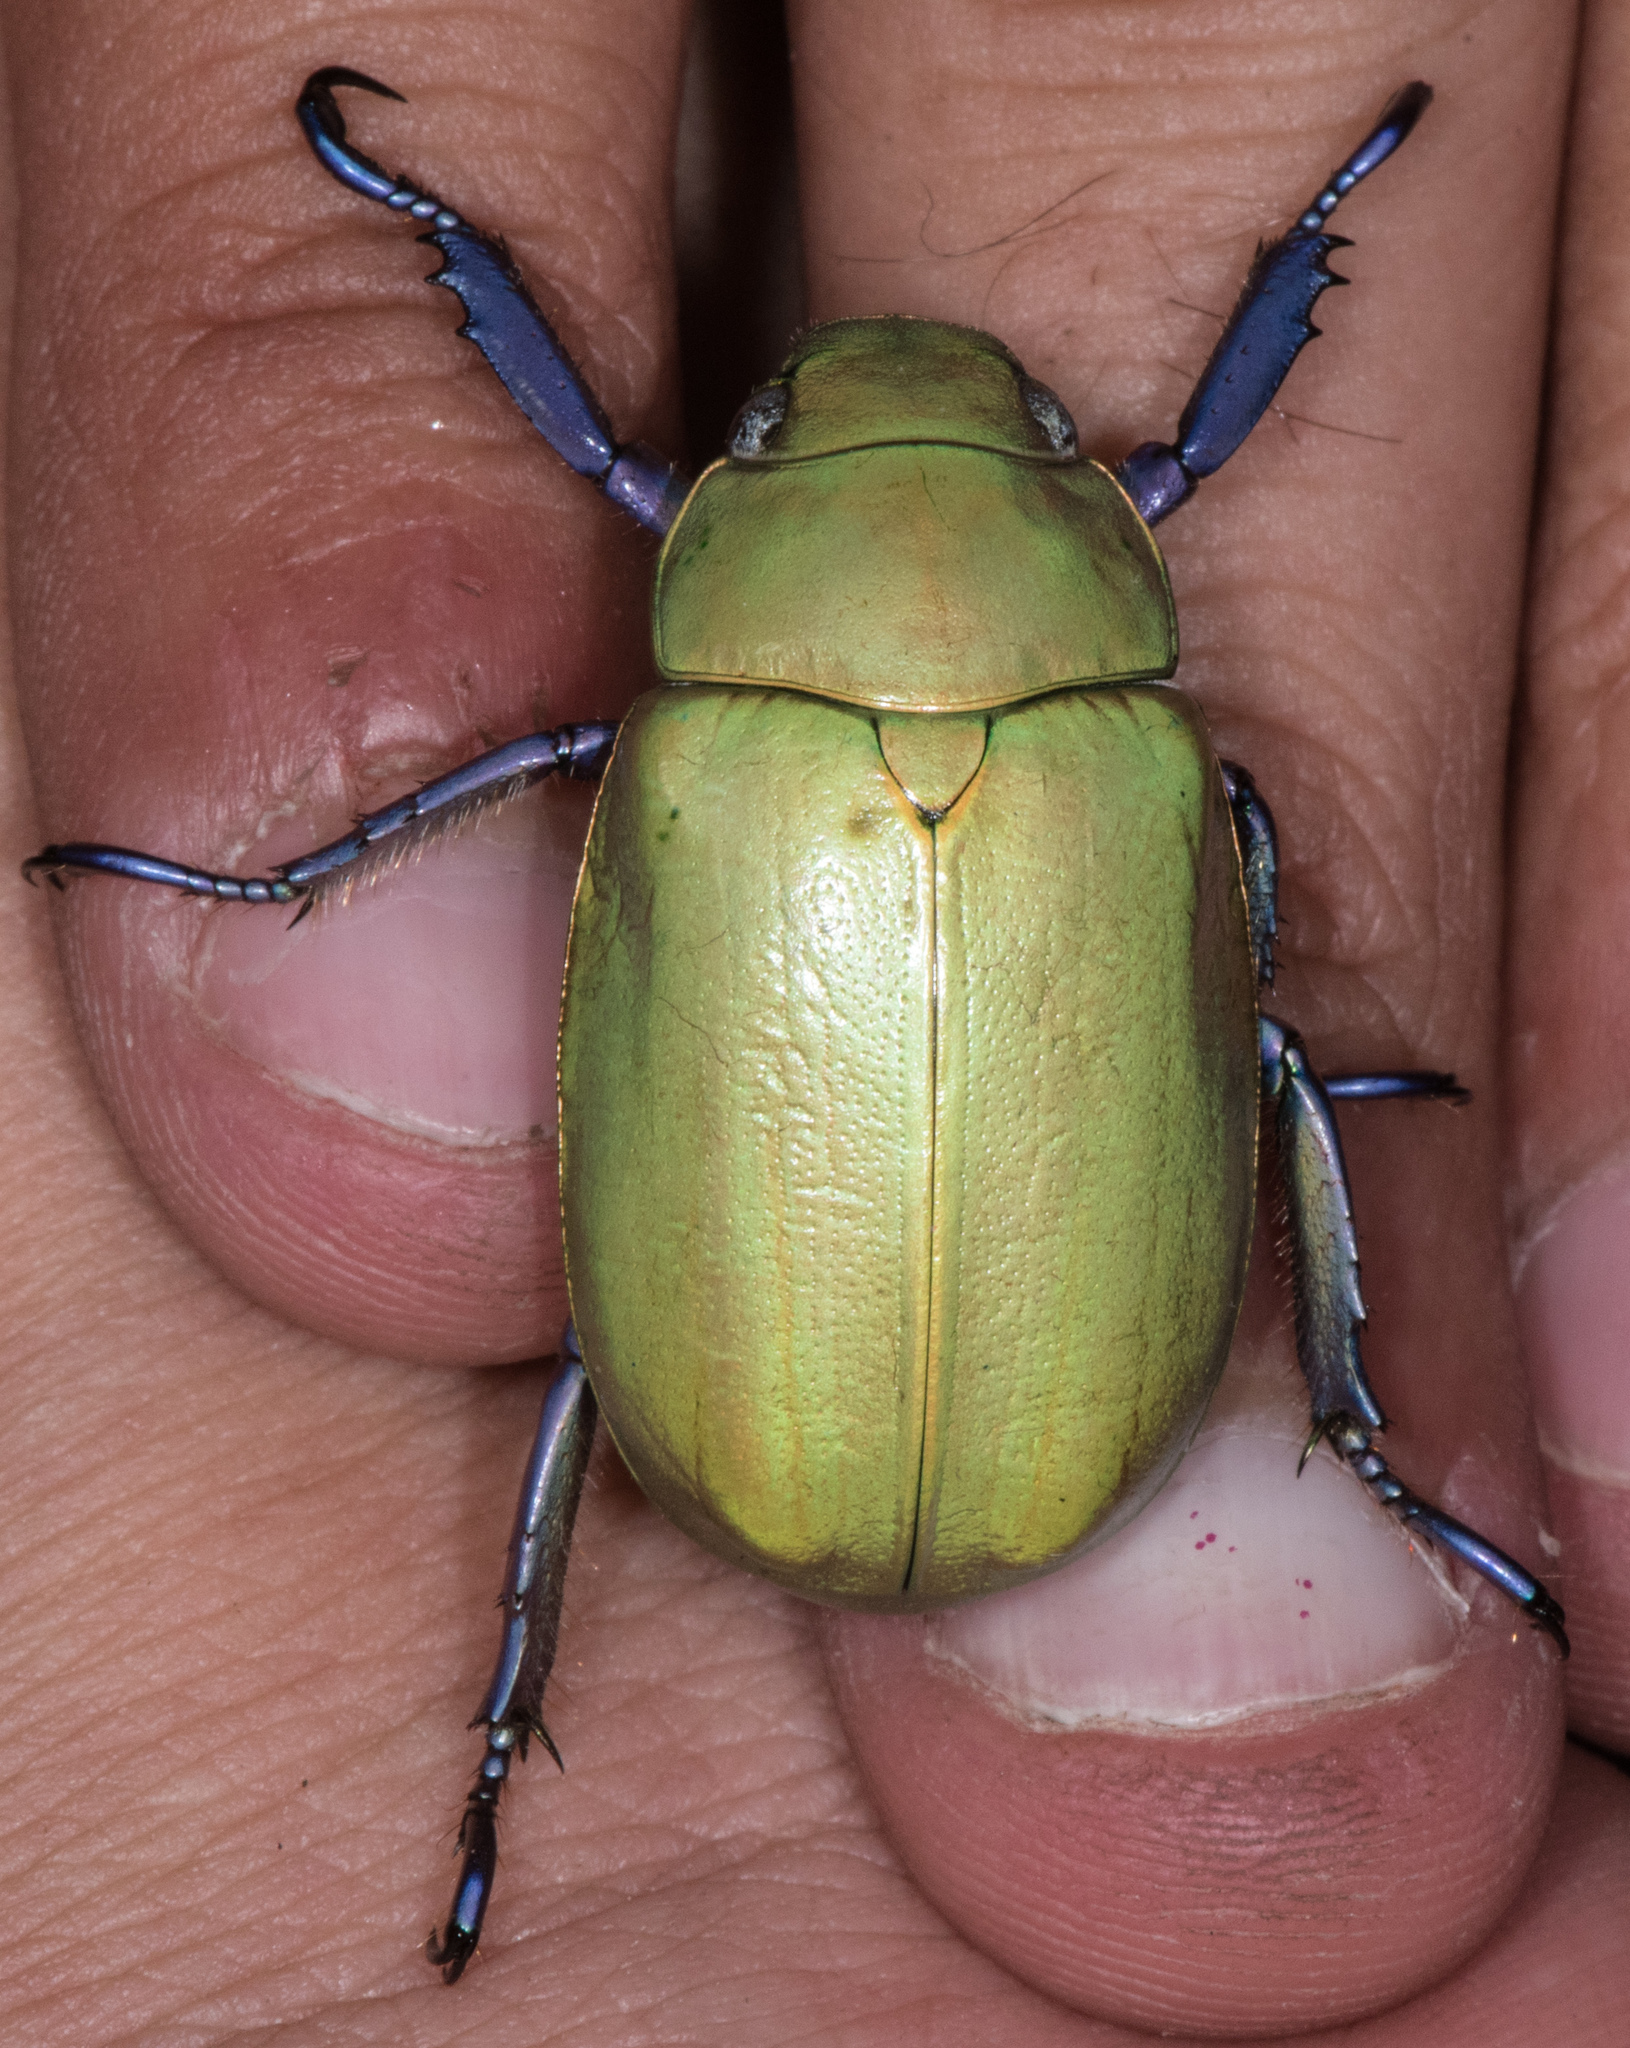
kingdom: Animalia
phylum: Arthropoda
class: Insecta
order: Coleoptera
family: Scarabaeidae
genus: Chrysina
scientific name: Chrysina beyeri
